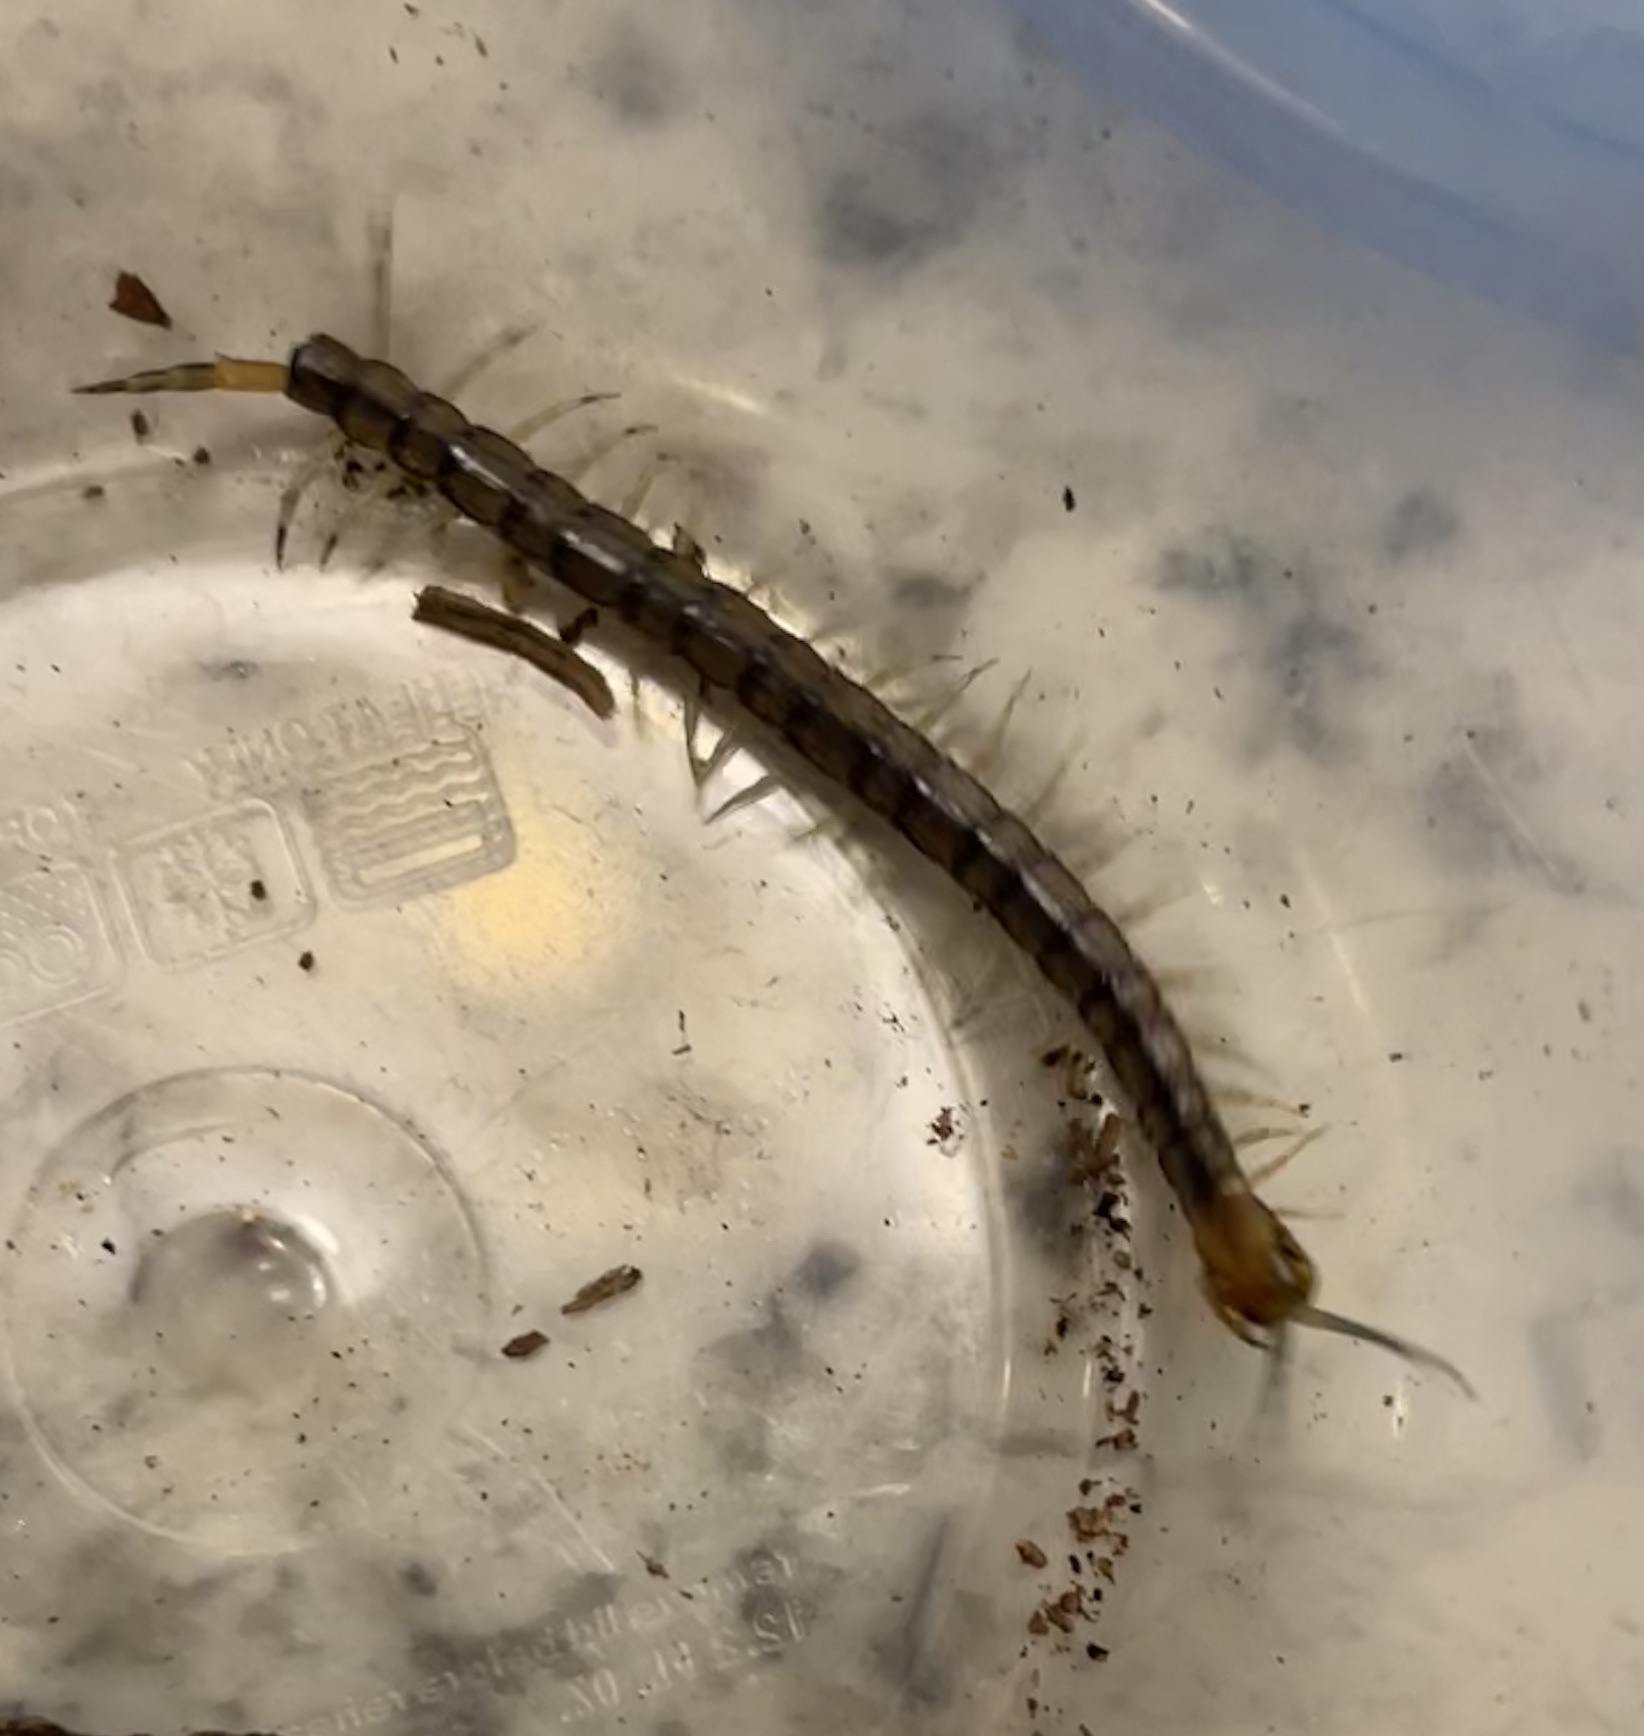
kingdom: Animalia
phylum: Arthropoda
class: Chilopoda
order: Scolopendromorpha
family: Scolopendridae
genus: Hemiscolopendra
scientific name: Hemiscolopendra marginata
